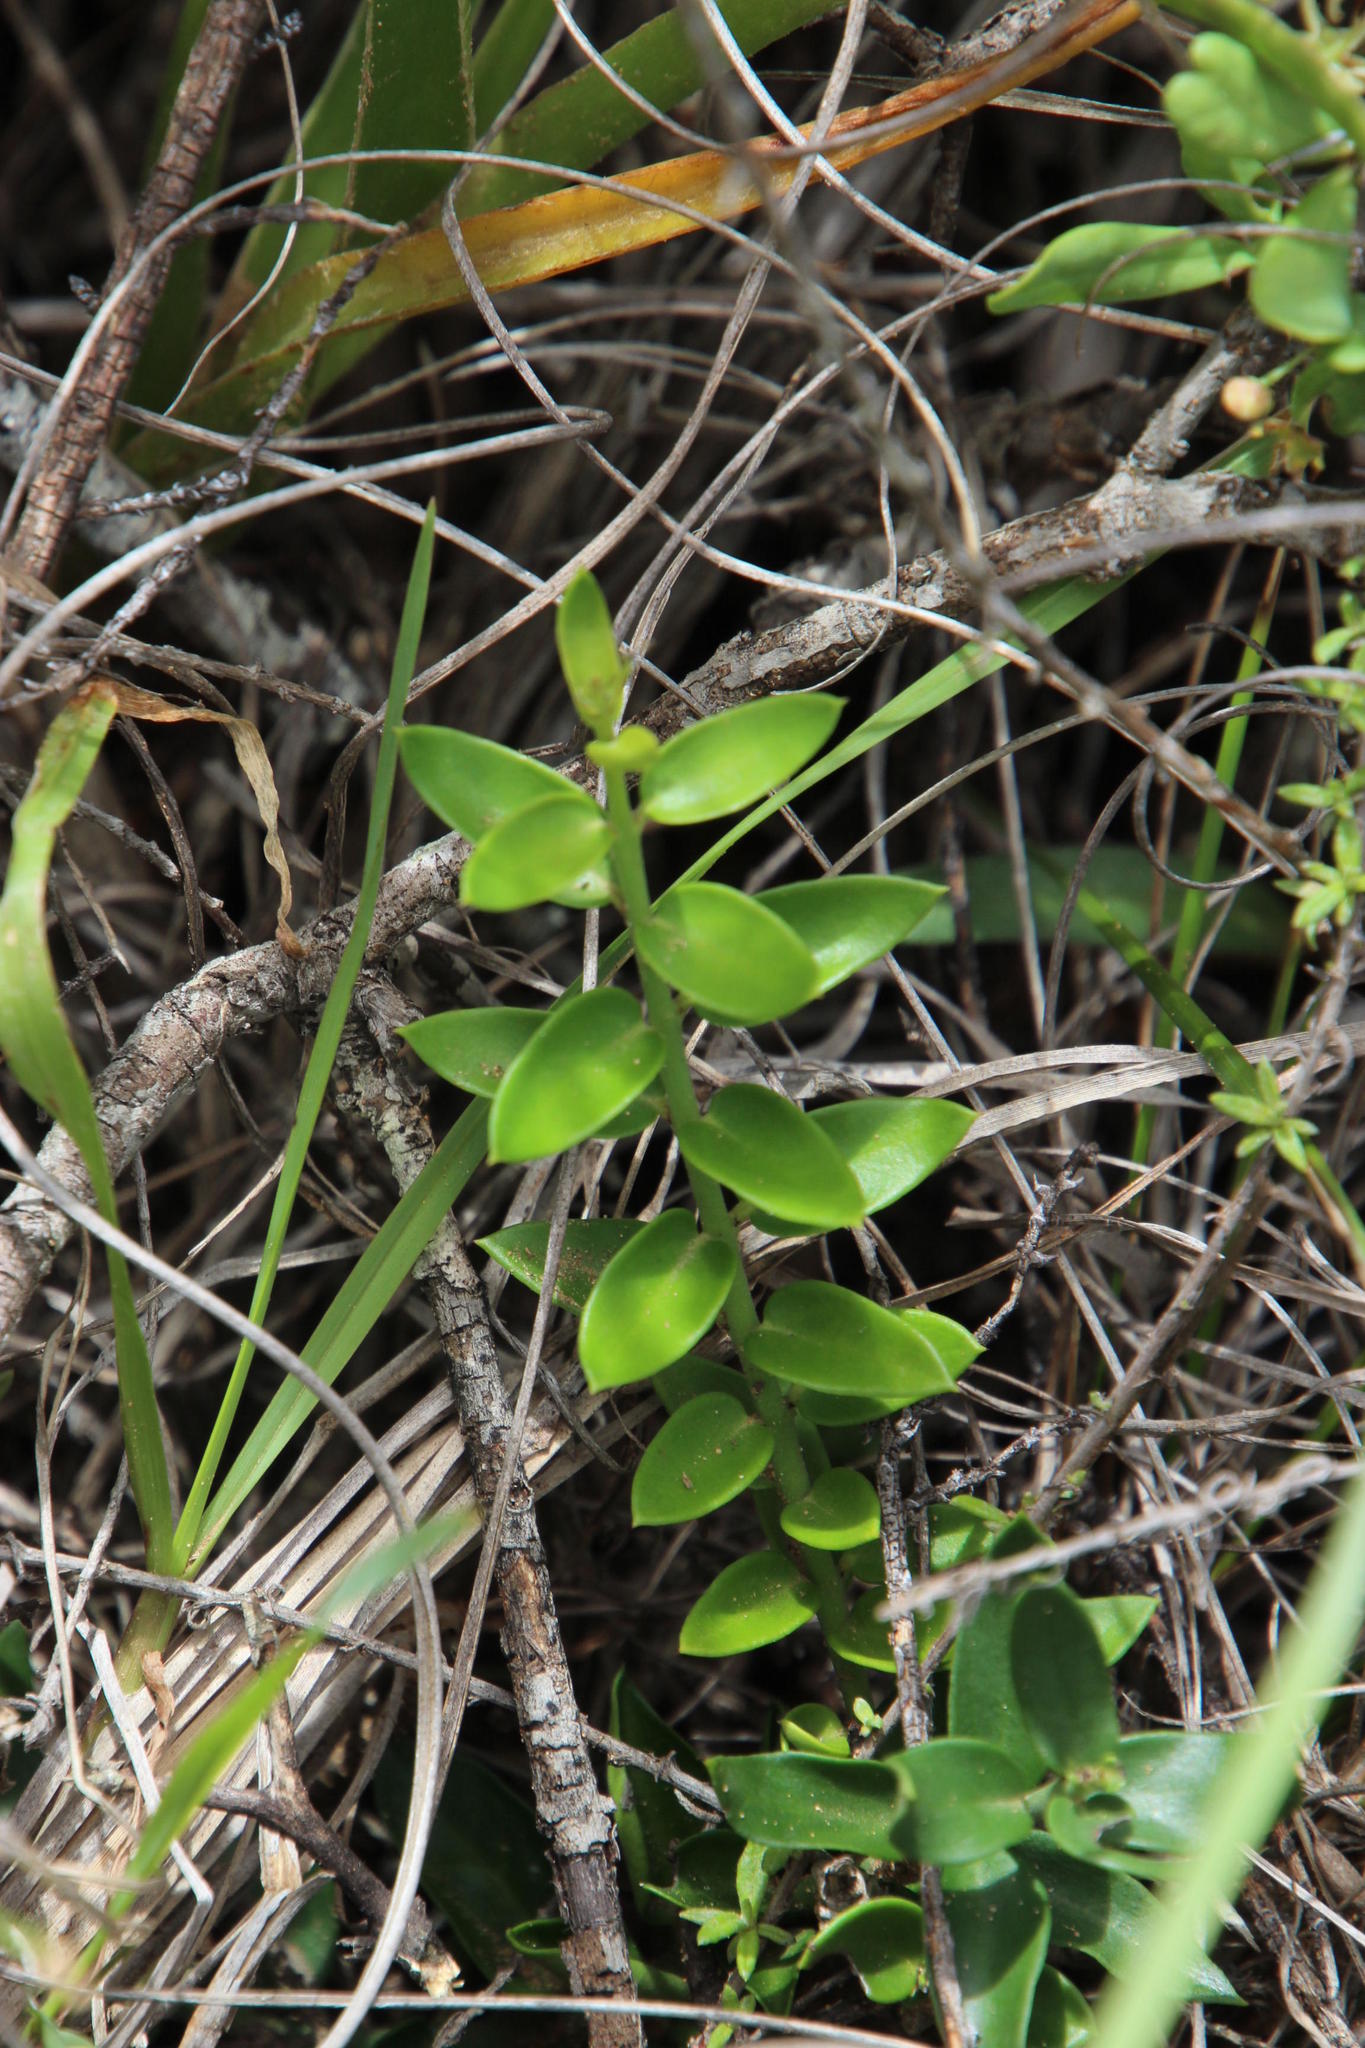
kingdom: Plantae
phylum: Tracheophyta
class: Magnoliopsida
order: Gentianales
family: Apocynaceae
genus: Carissa
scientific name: Carissa haematocarpa
